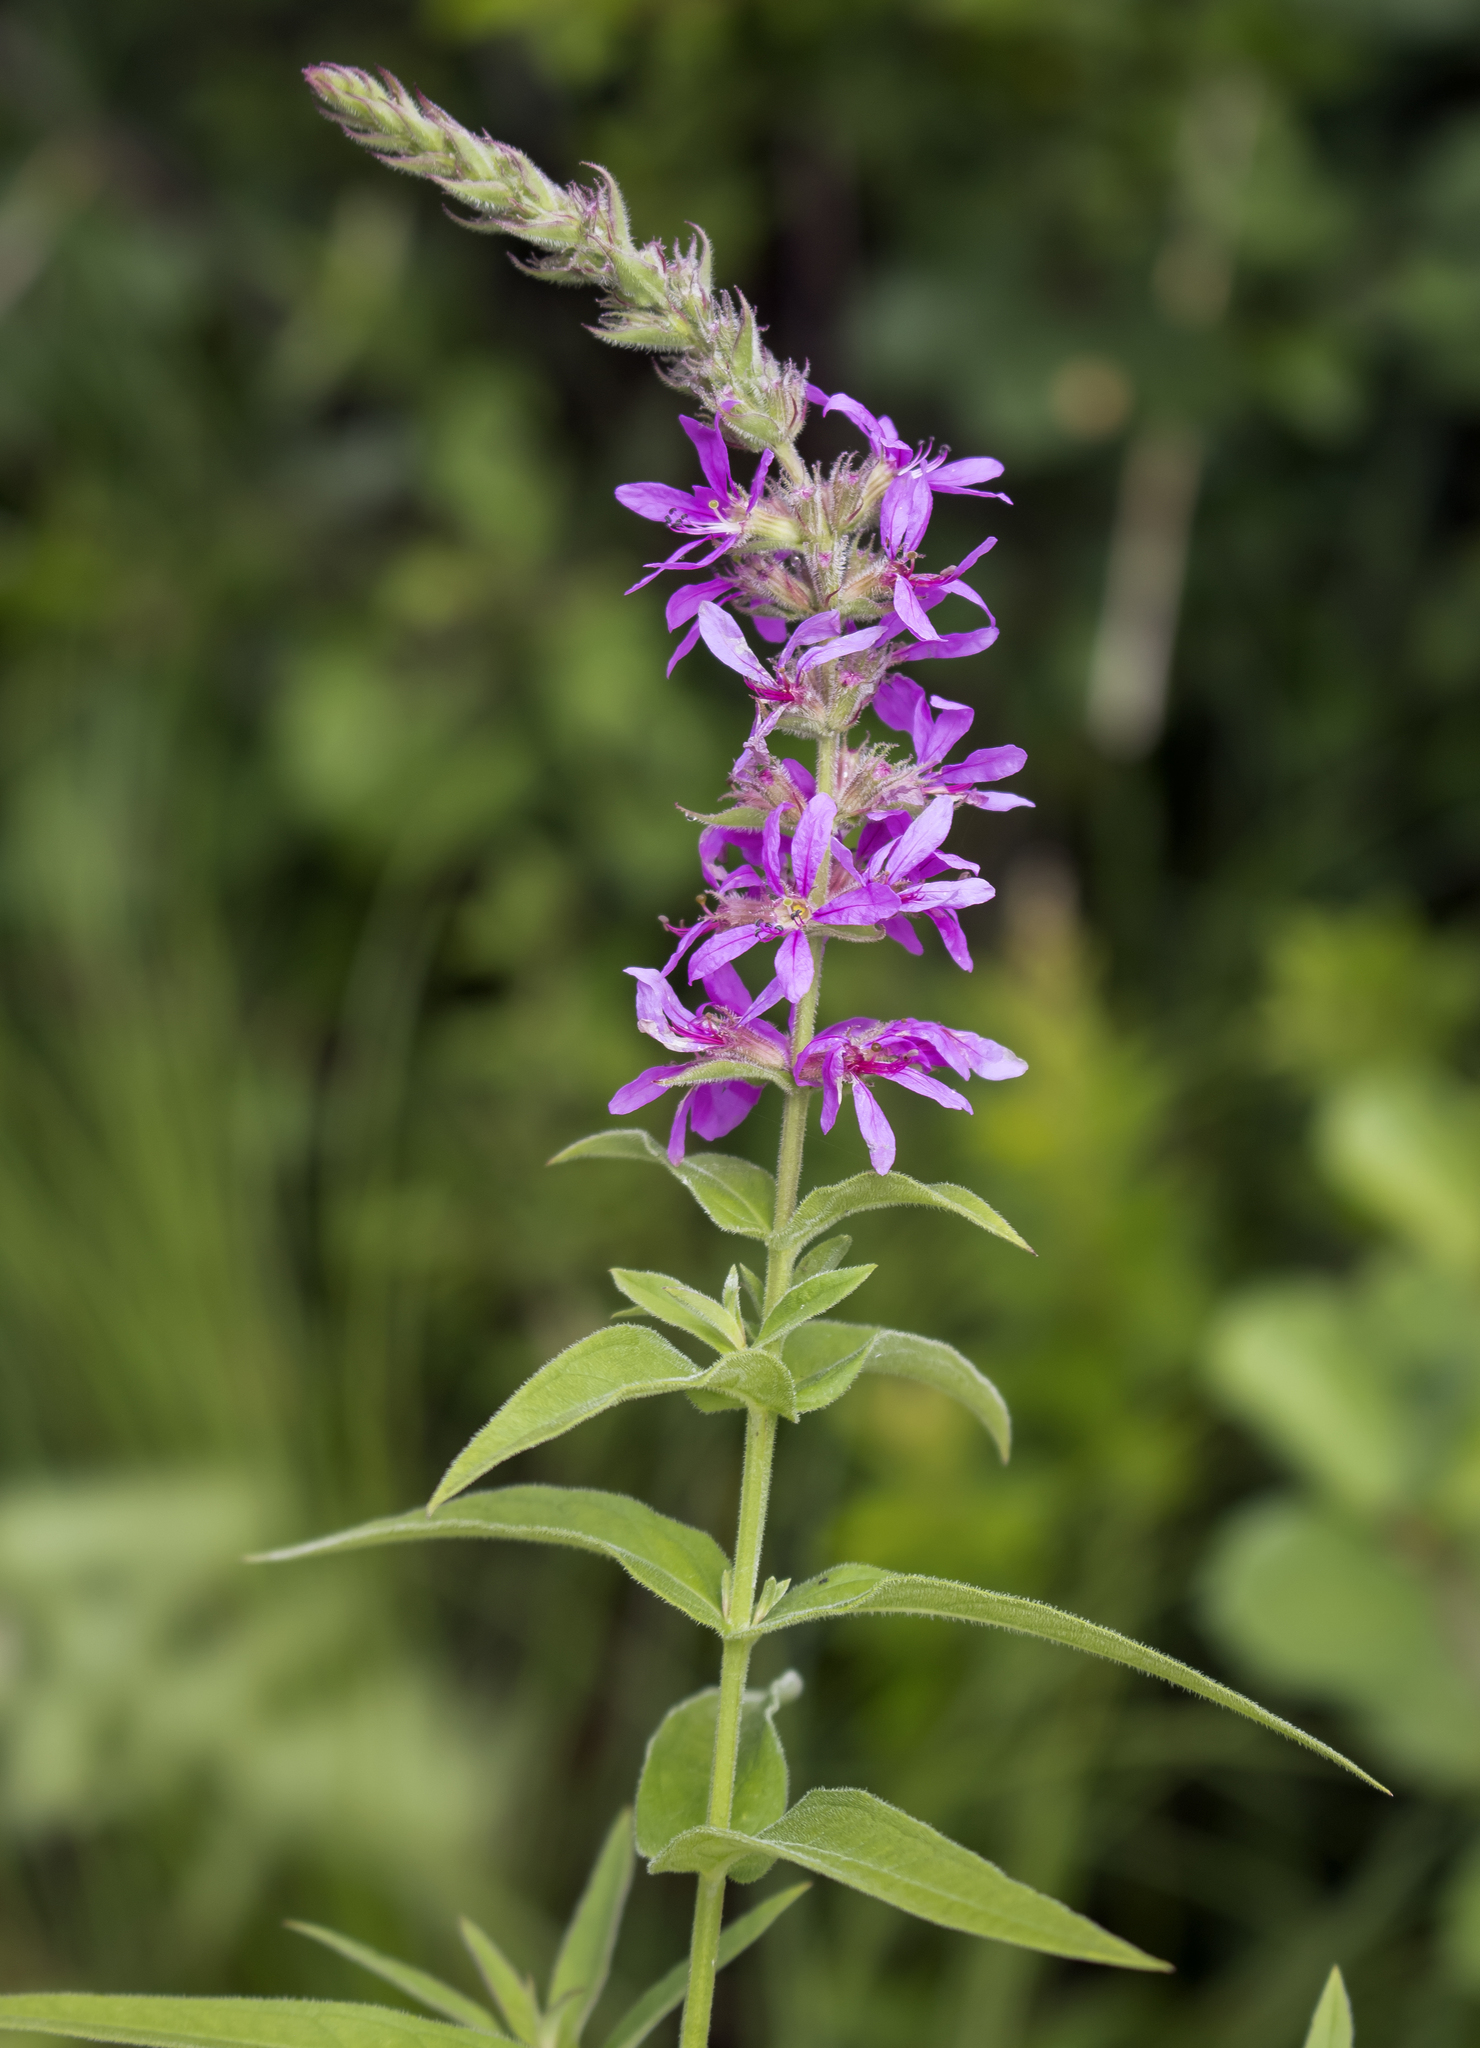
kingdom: Plantae
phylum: Tracheophyta
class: Magnoliopsida
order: Myrtales
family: Lythraceae
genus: Lythrum
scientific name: Lythrum salicaria
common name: Purple loosestrife
